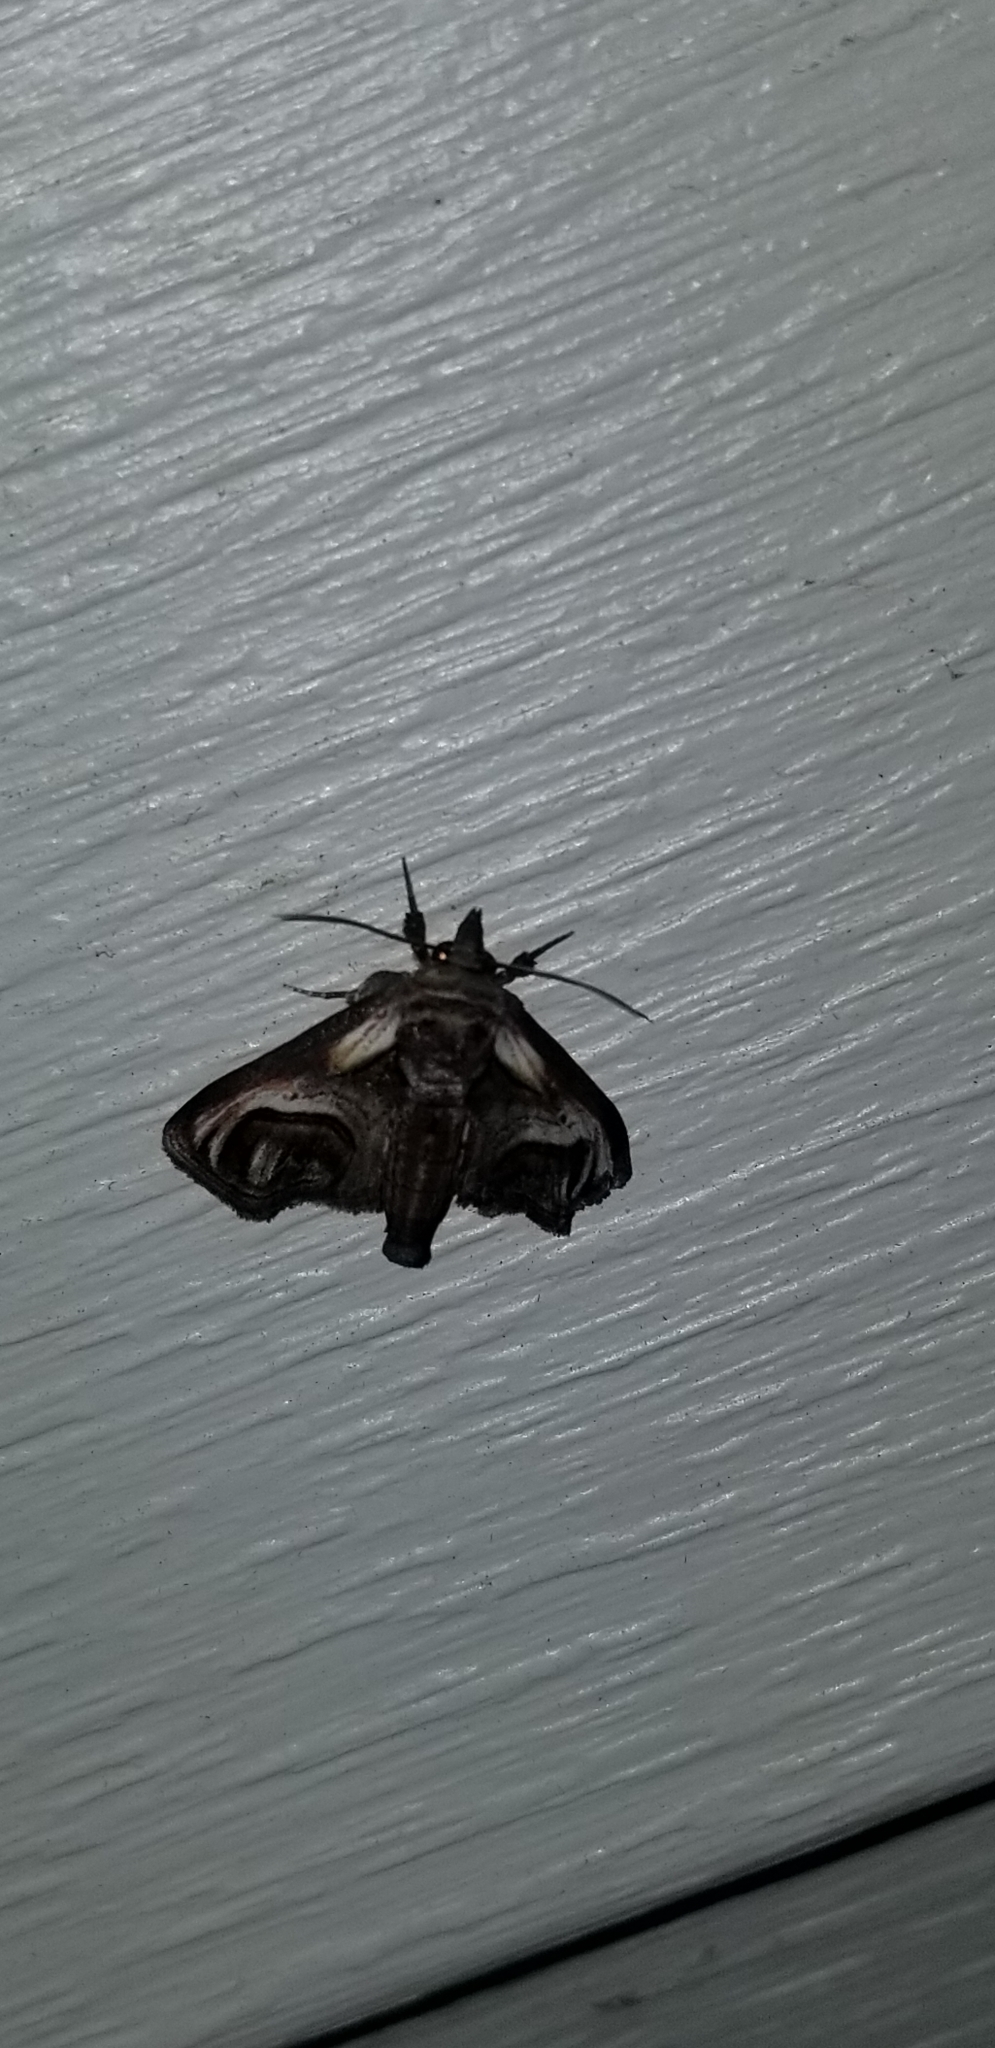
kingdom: Animalia
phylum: Arthropoda
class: Insecta
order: Lepidoptera
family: Euteliidae
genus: Paectes
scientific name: Paectes oculatrix
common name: Eyed paectes moth
